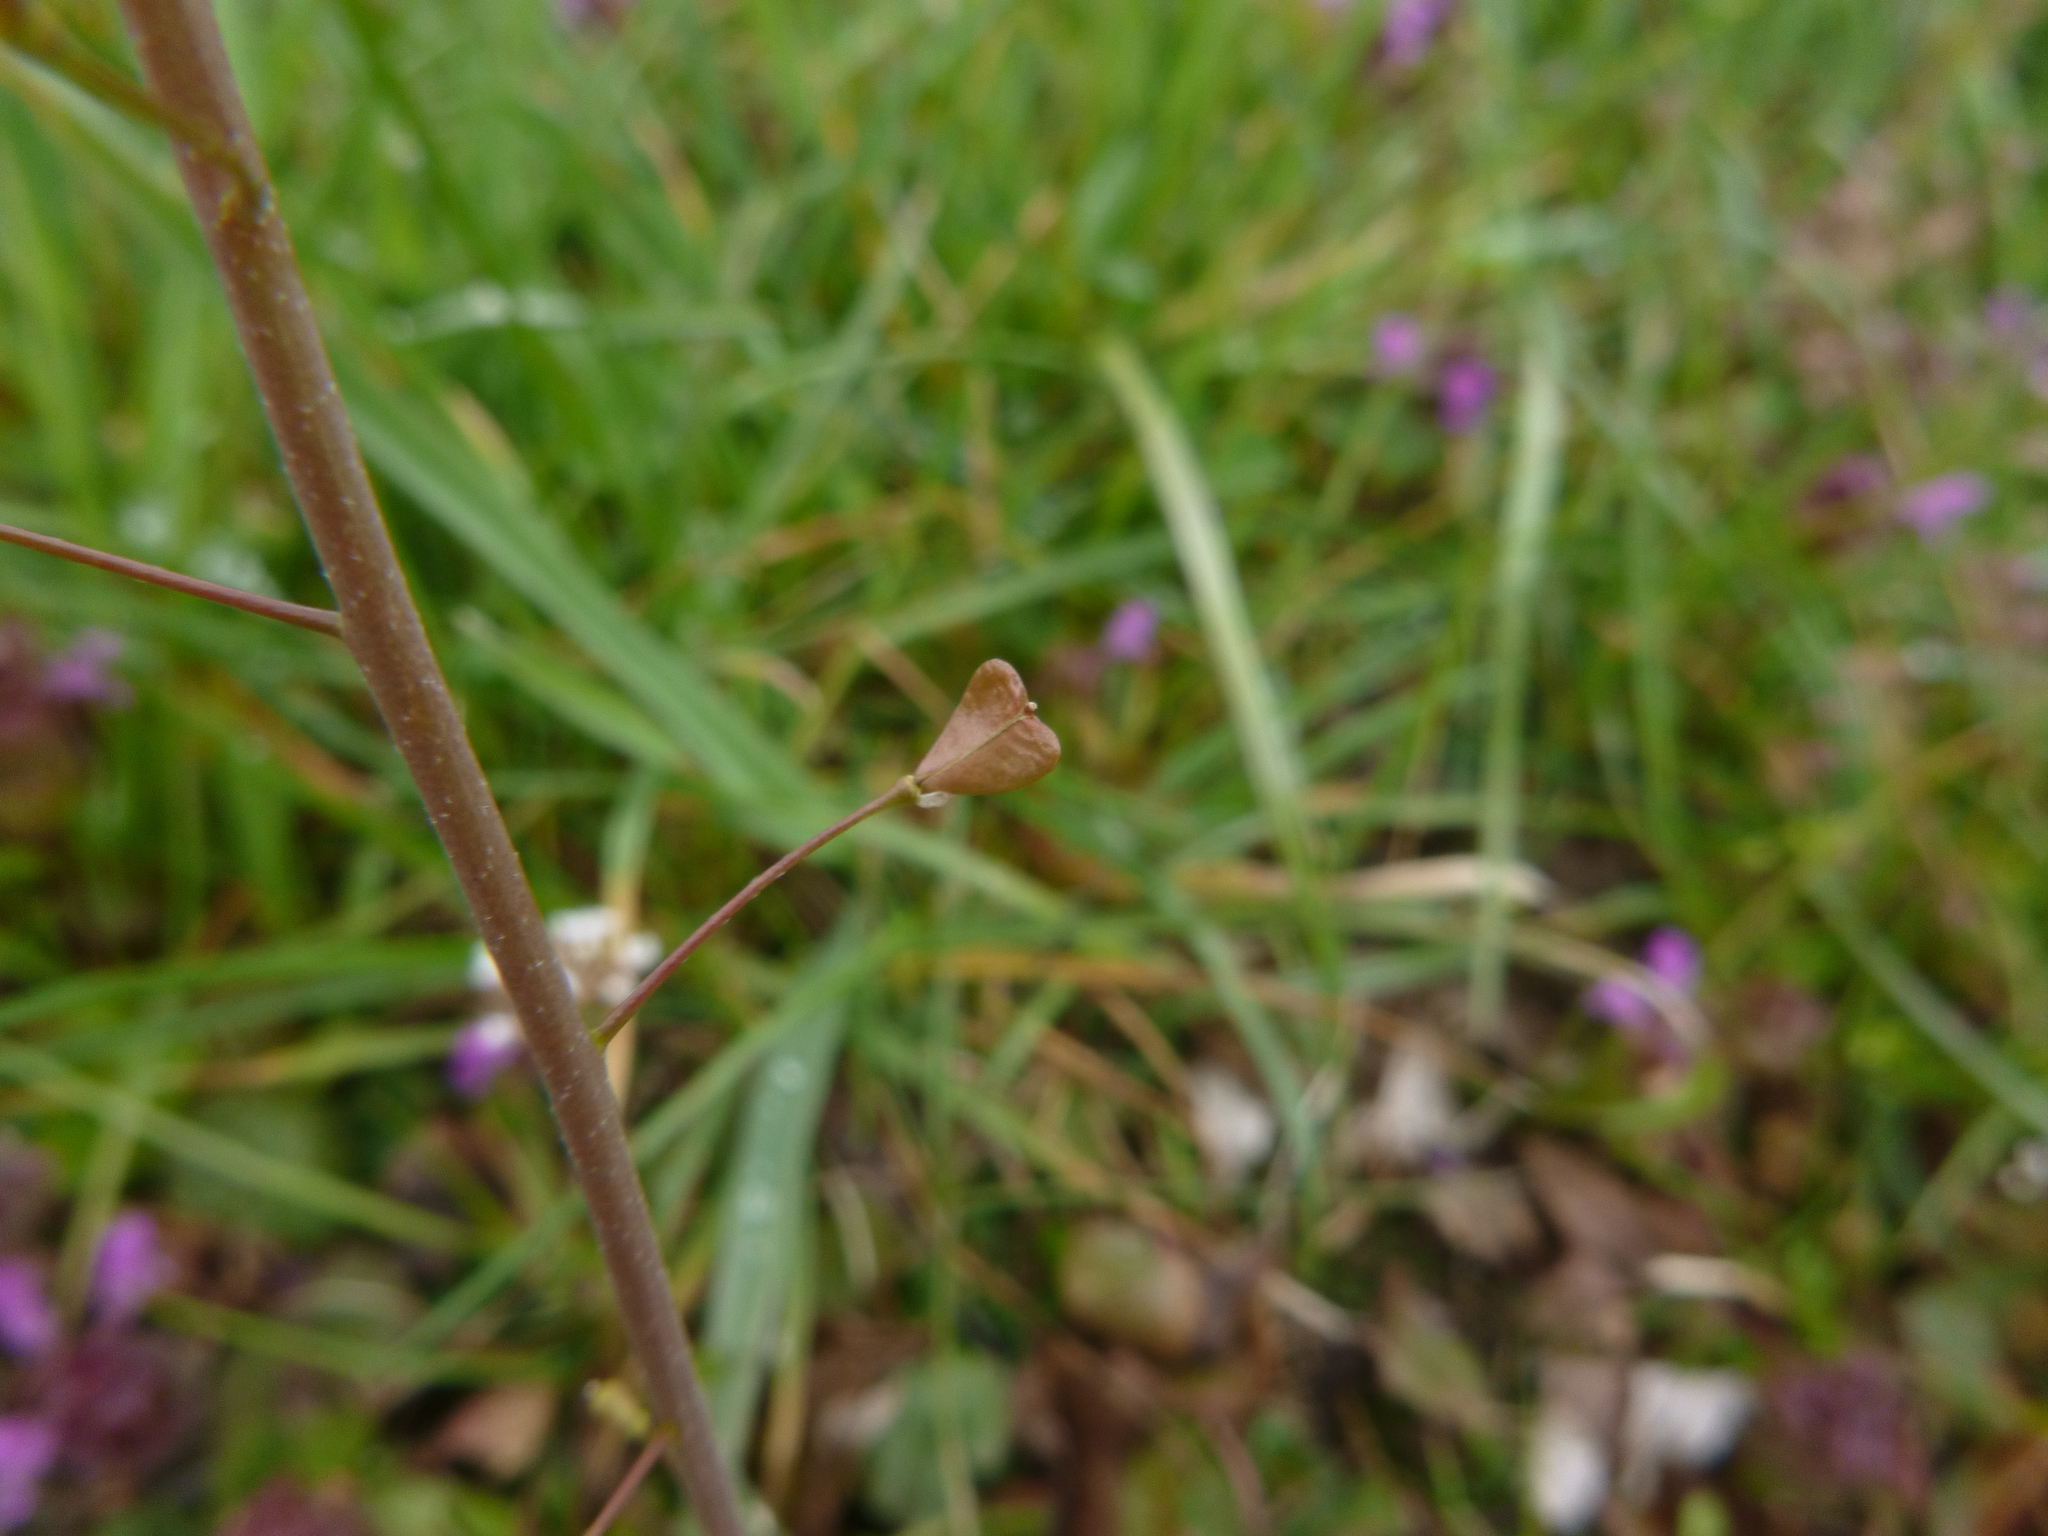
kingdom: Plantae
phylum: Tracheophyta
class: Magnoliopsida
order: Brassicales
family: Brassicaceae
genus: Capsella
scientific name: Capsella bursa-pastoris
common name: Shepherd's purse
